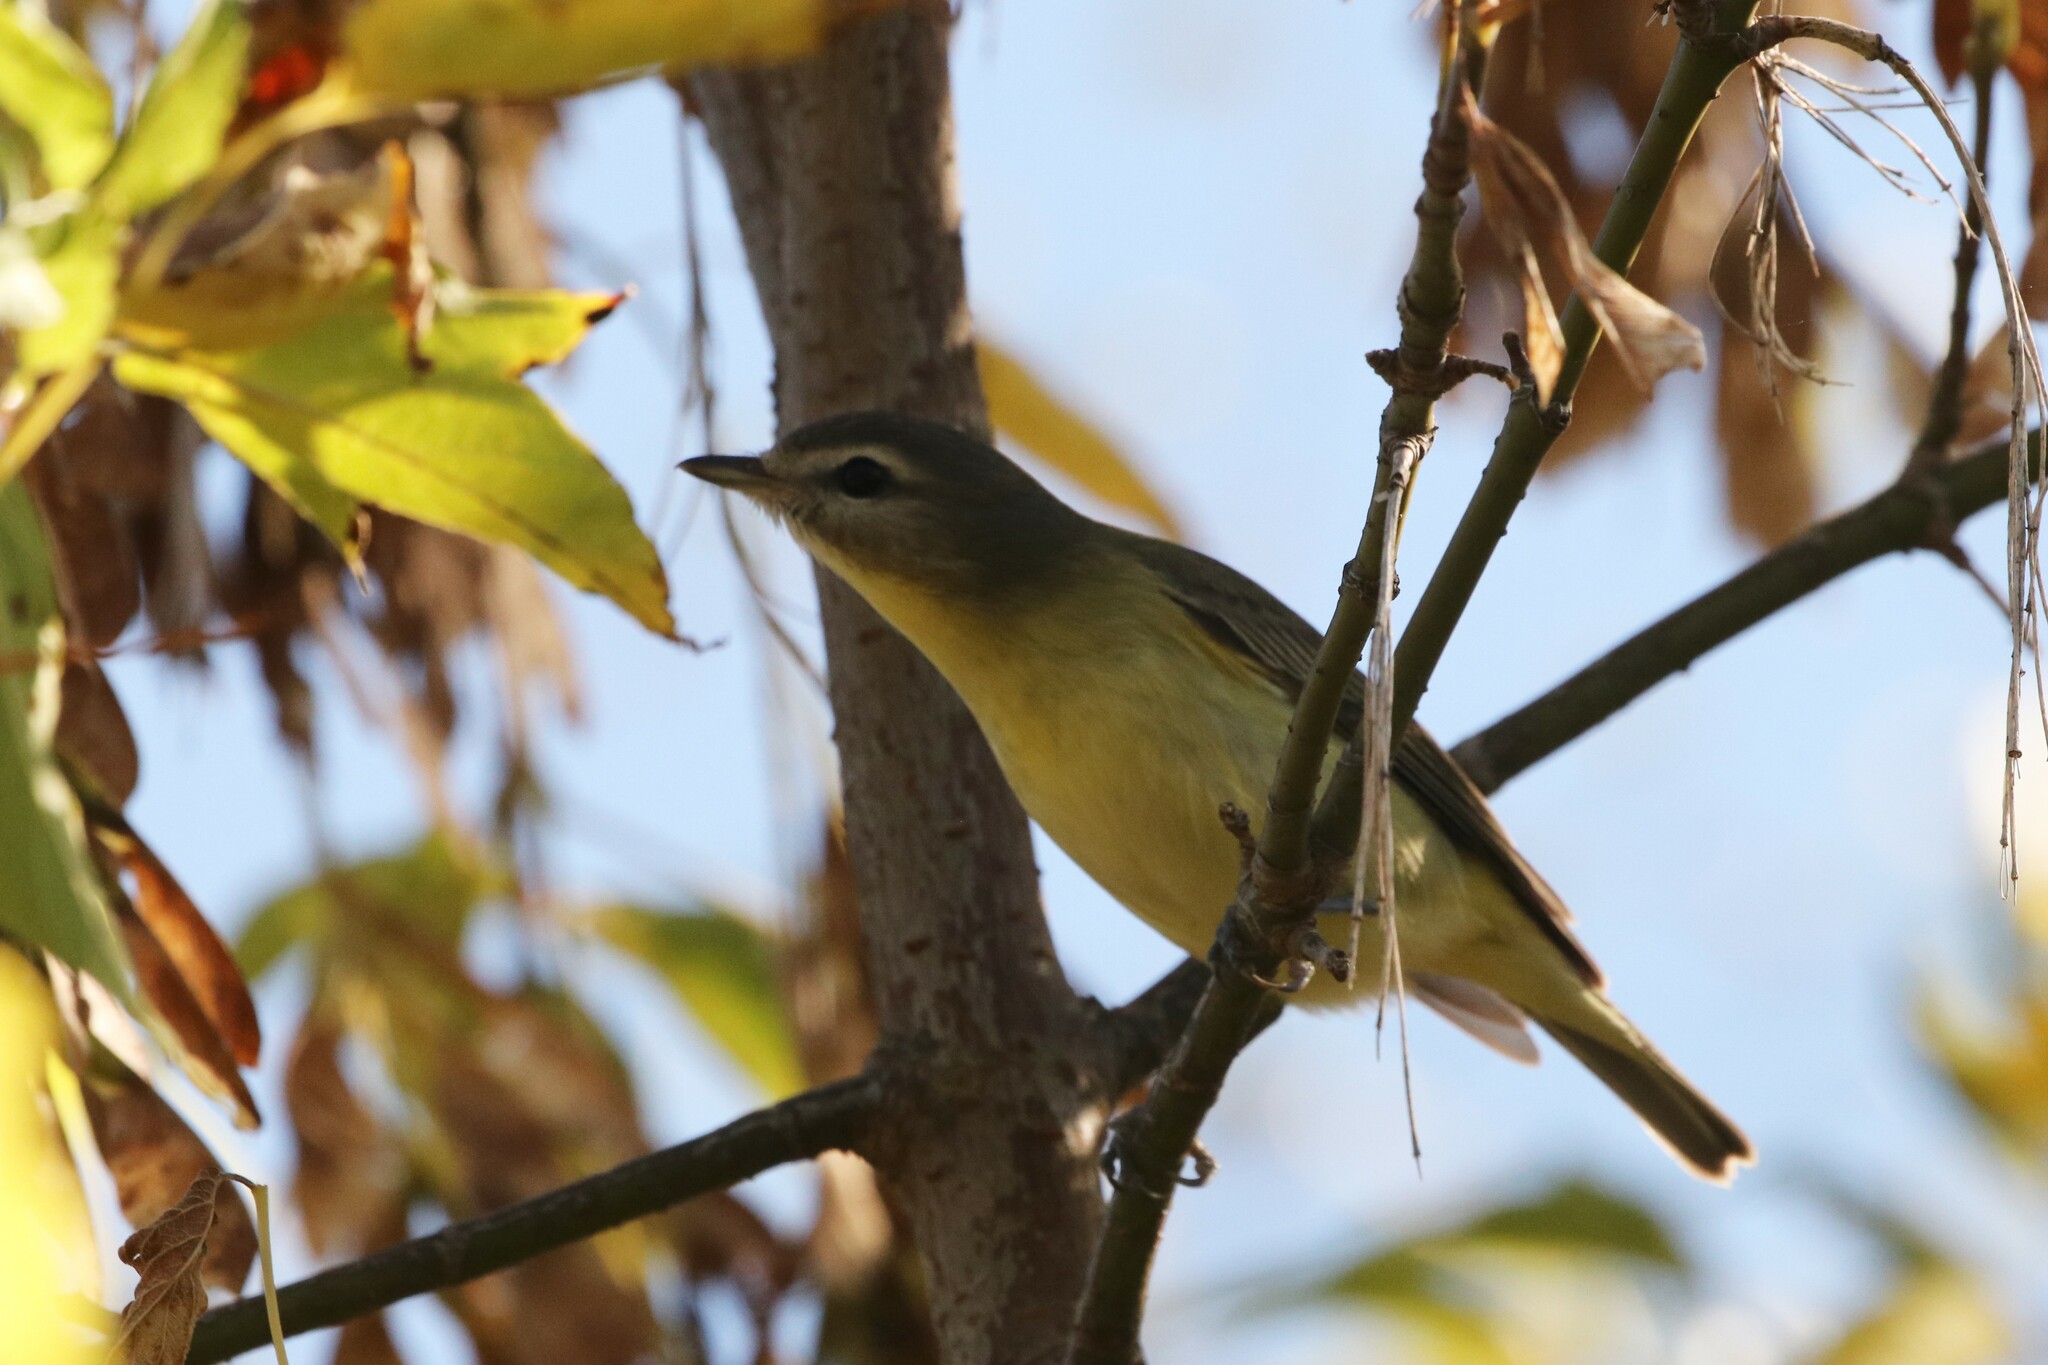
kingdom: Animalia
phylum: Chordata
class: Aves
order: Passeriformes
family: Vireonidae
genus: Vireo
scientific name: Vireo philadelphicus
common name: Philadelphia vireo
